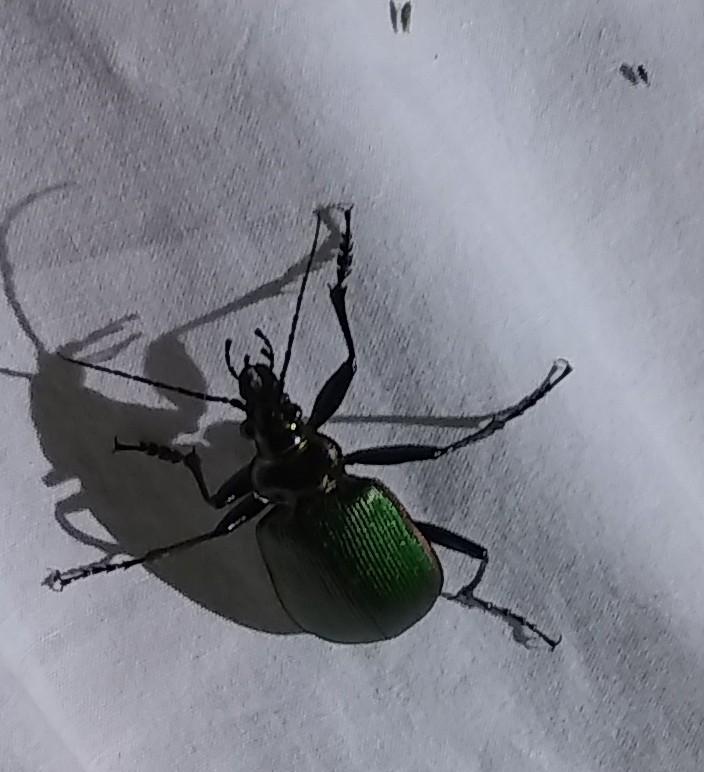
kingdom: Animalia
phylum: Arthropoda
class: Insecta
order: Coleoptera
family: Carabidae
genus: Calosoma
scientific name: Calosoma scrutator
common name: Fiery searcher beetle
